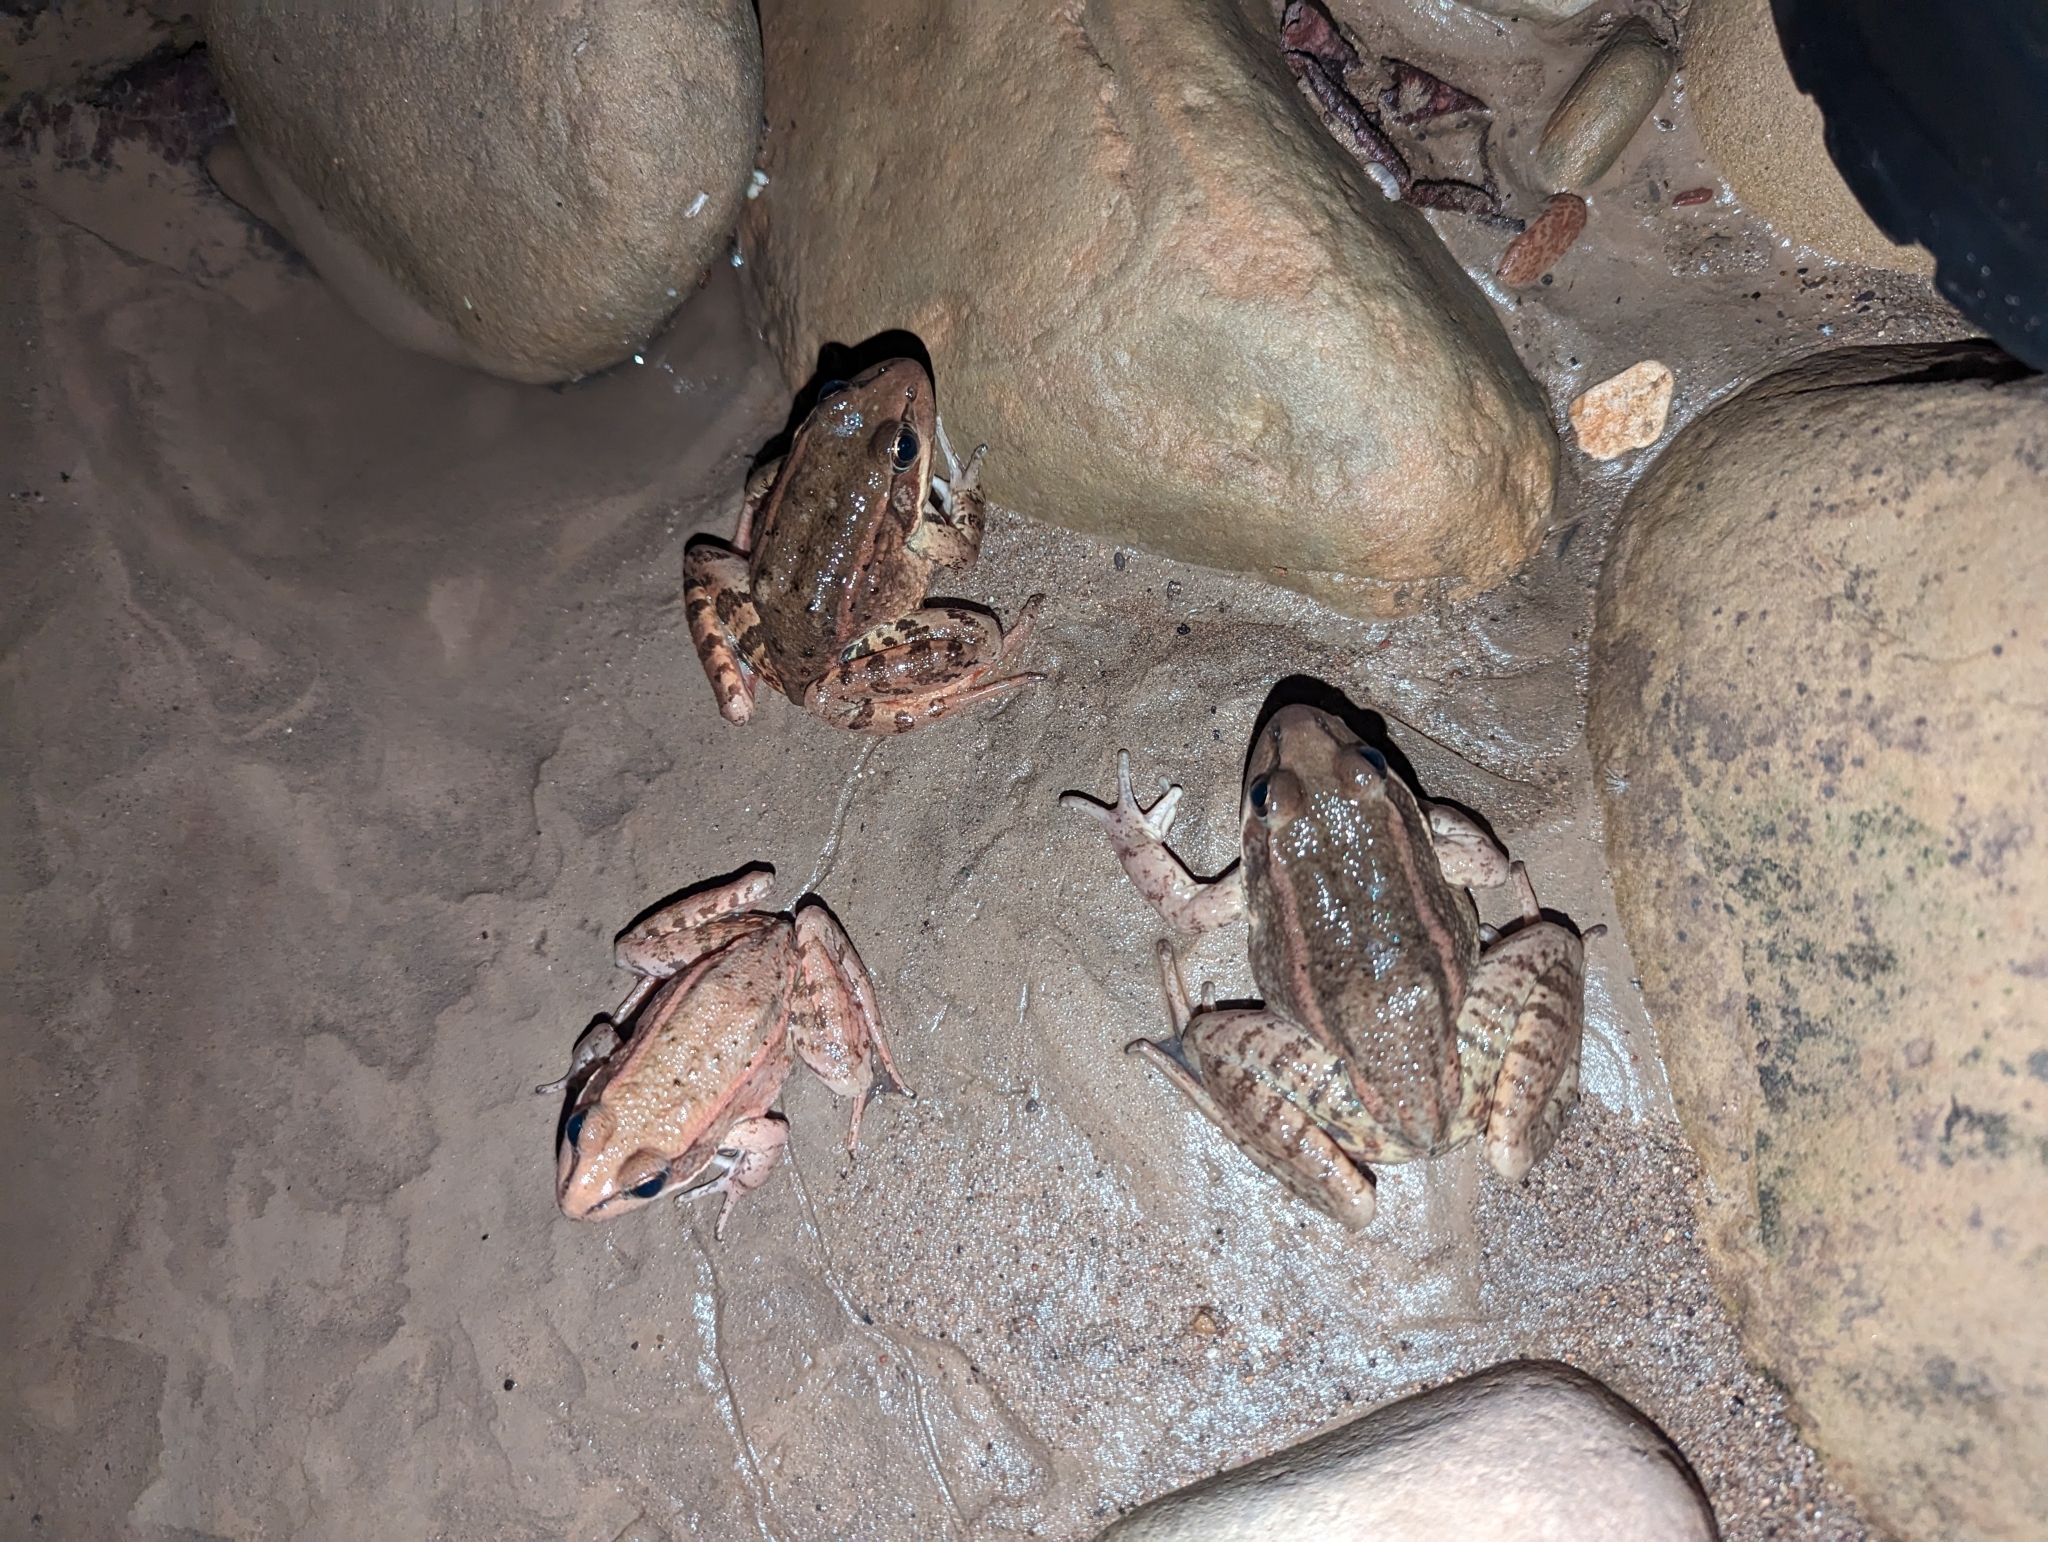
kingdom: Animalia
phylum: Chordata
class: Amphibia
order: Anura
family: Ranidae
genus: Rana
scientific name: Rana draytonii
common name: California red-legged frog
